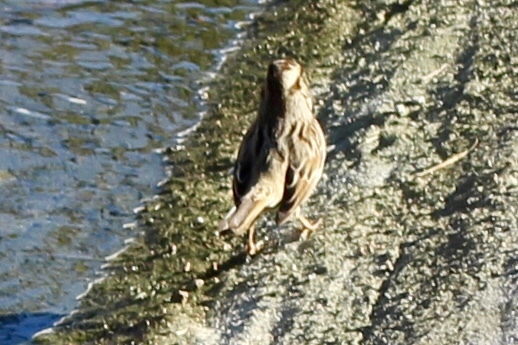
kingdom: Animalia
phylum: Chordata
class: Aves
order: Passeriformes
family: Passerellidae
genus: Melospiza
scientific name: Melospiza melodia
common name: Song sparrow
